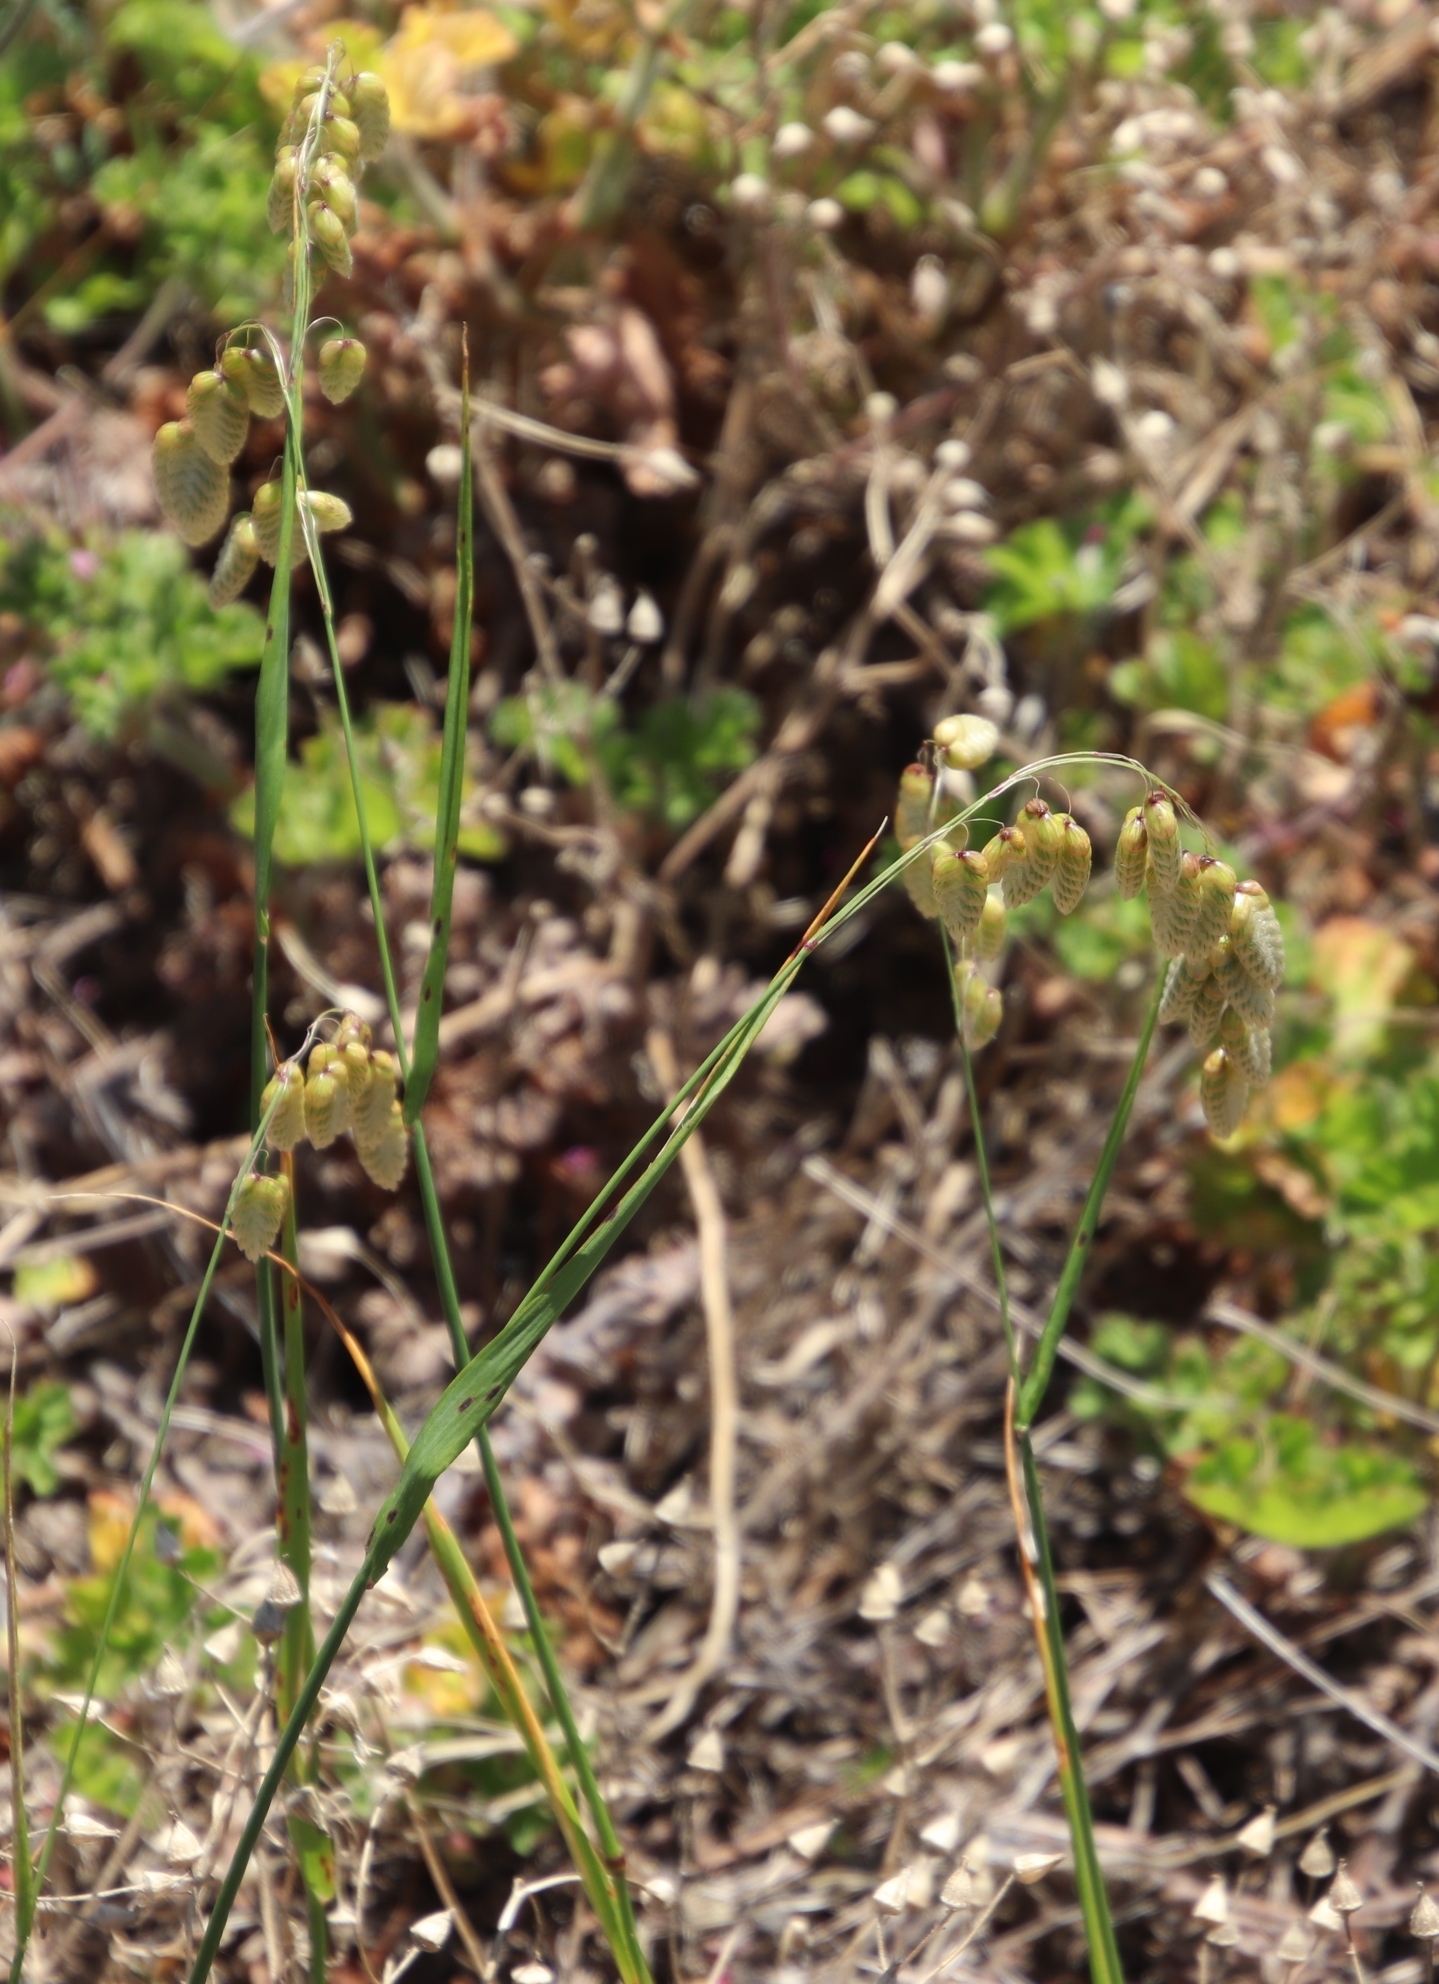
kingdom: Plantae
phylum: Tracheophyta
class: Liliopsida
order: Poales
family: Poaceae
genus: Briza
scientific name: Briza maxima
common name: Big quakinggrass
